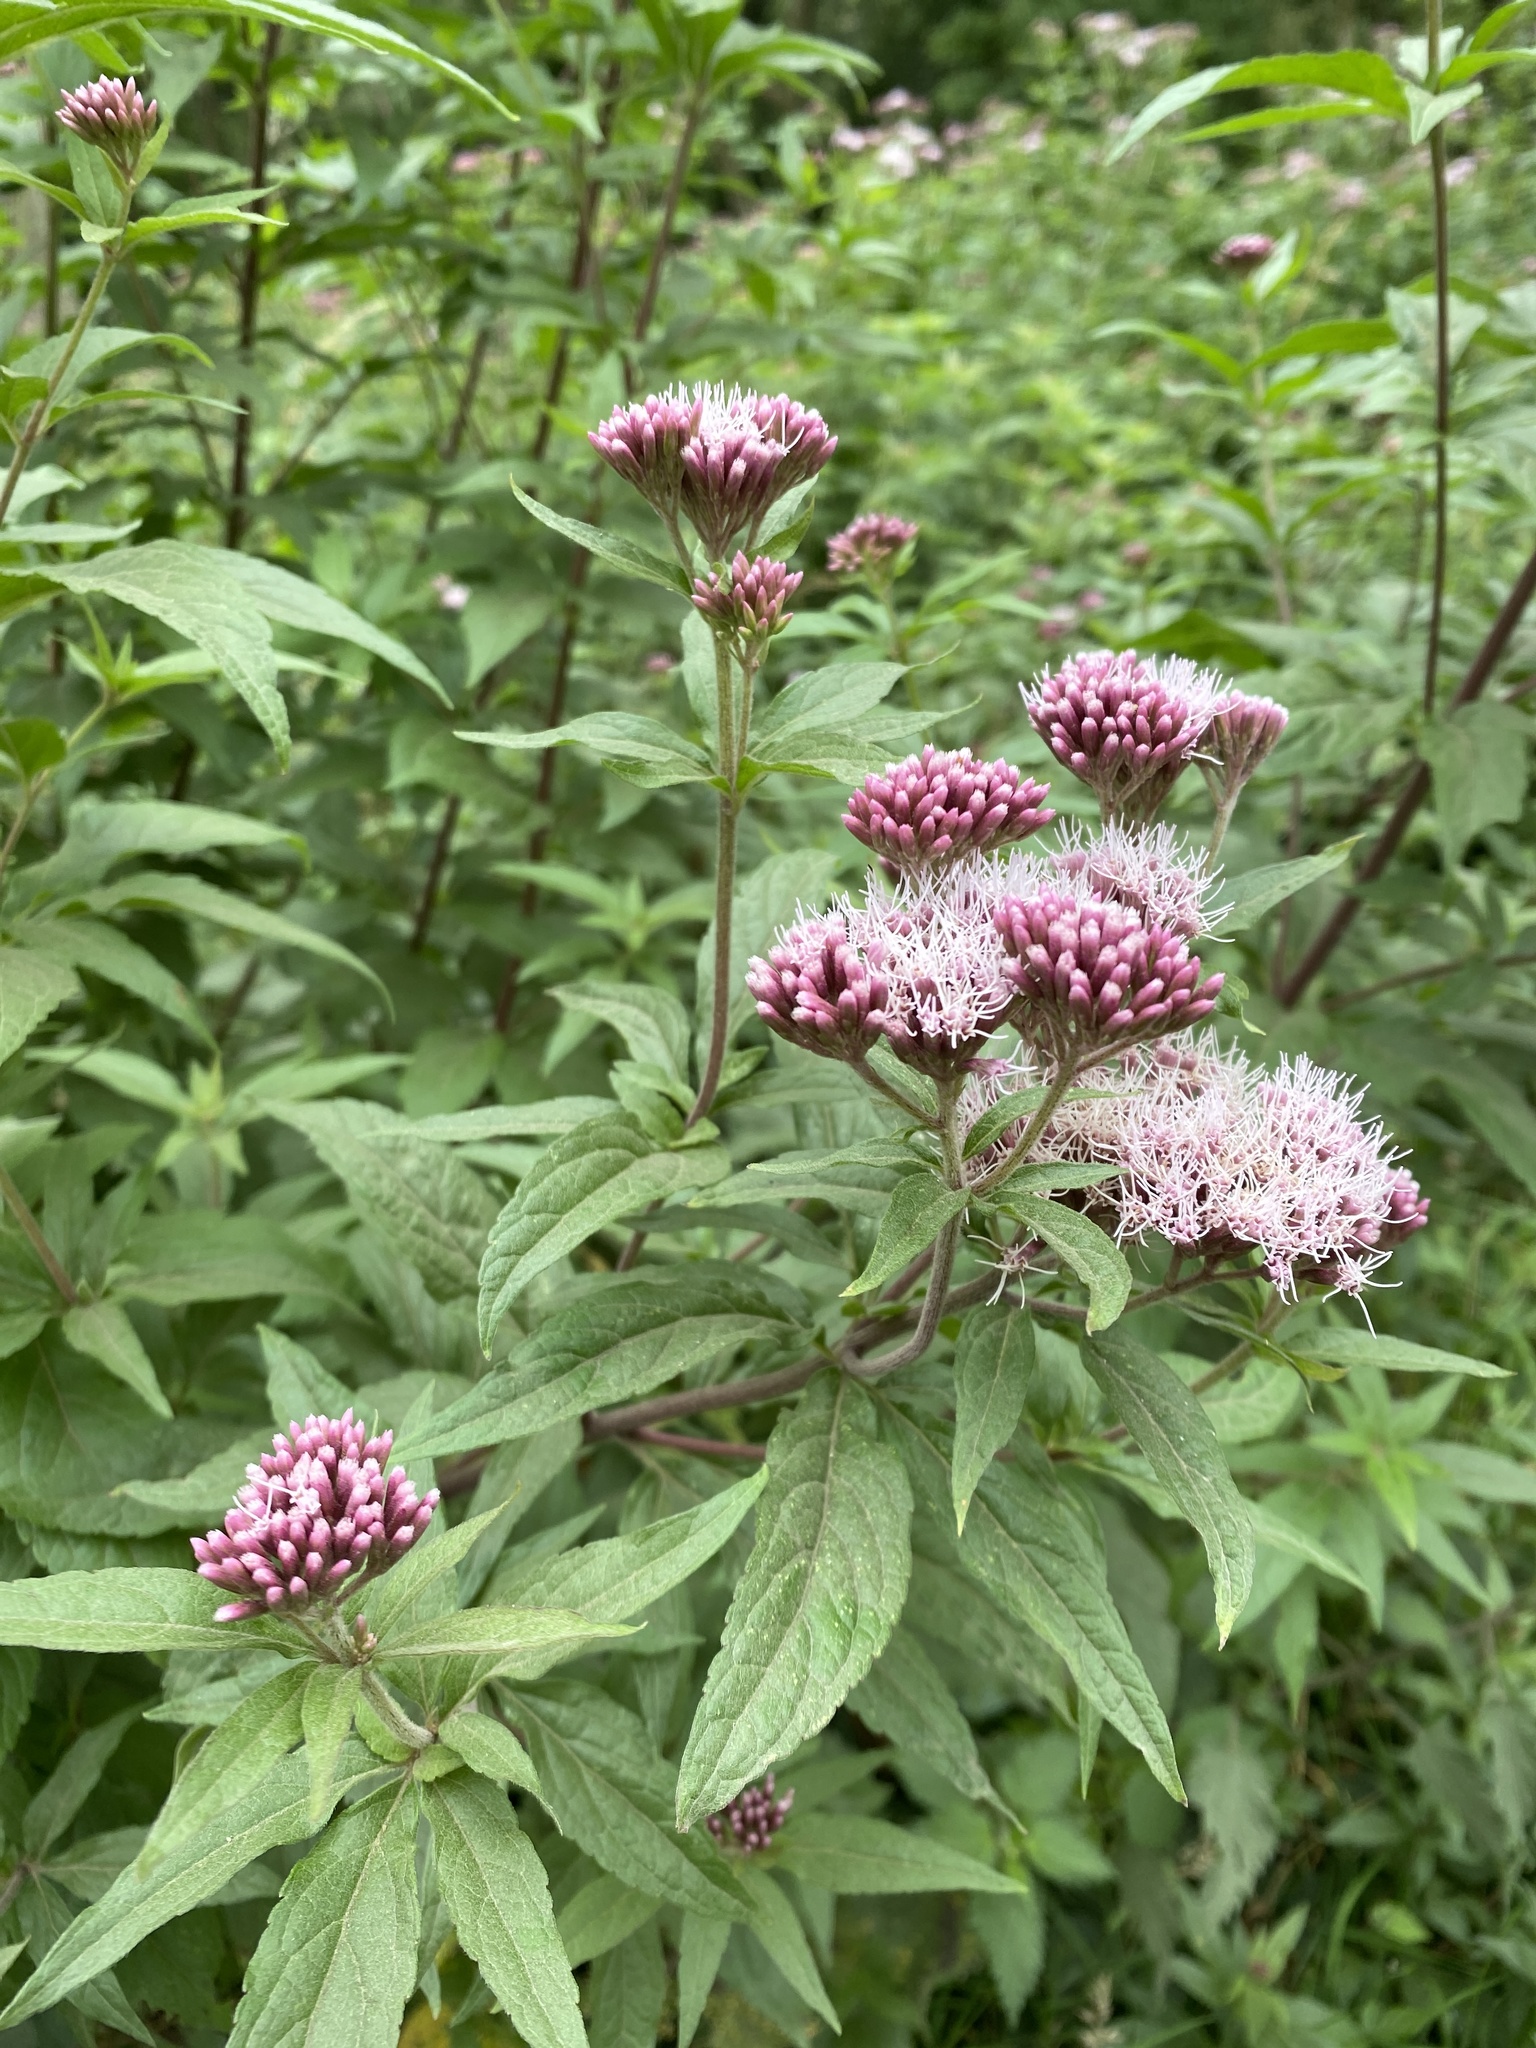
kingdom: Plantae
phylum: Tracheophyta
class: Magnoliopsida
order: Asterales
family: Asteraceae
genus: Eupatorium
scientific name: Eupatorium cannabinum
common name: Hemp-agrimony
